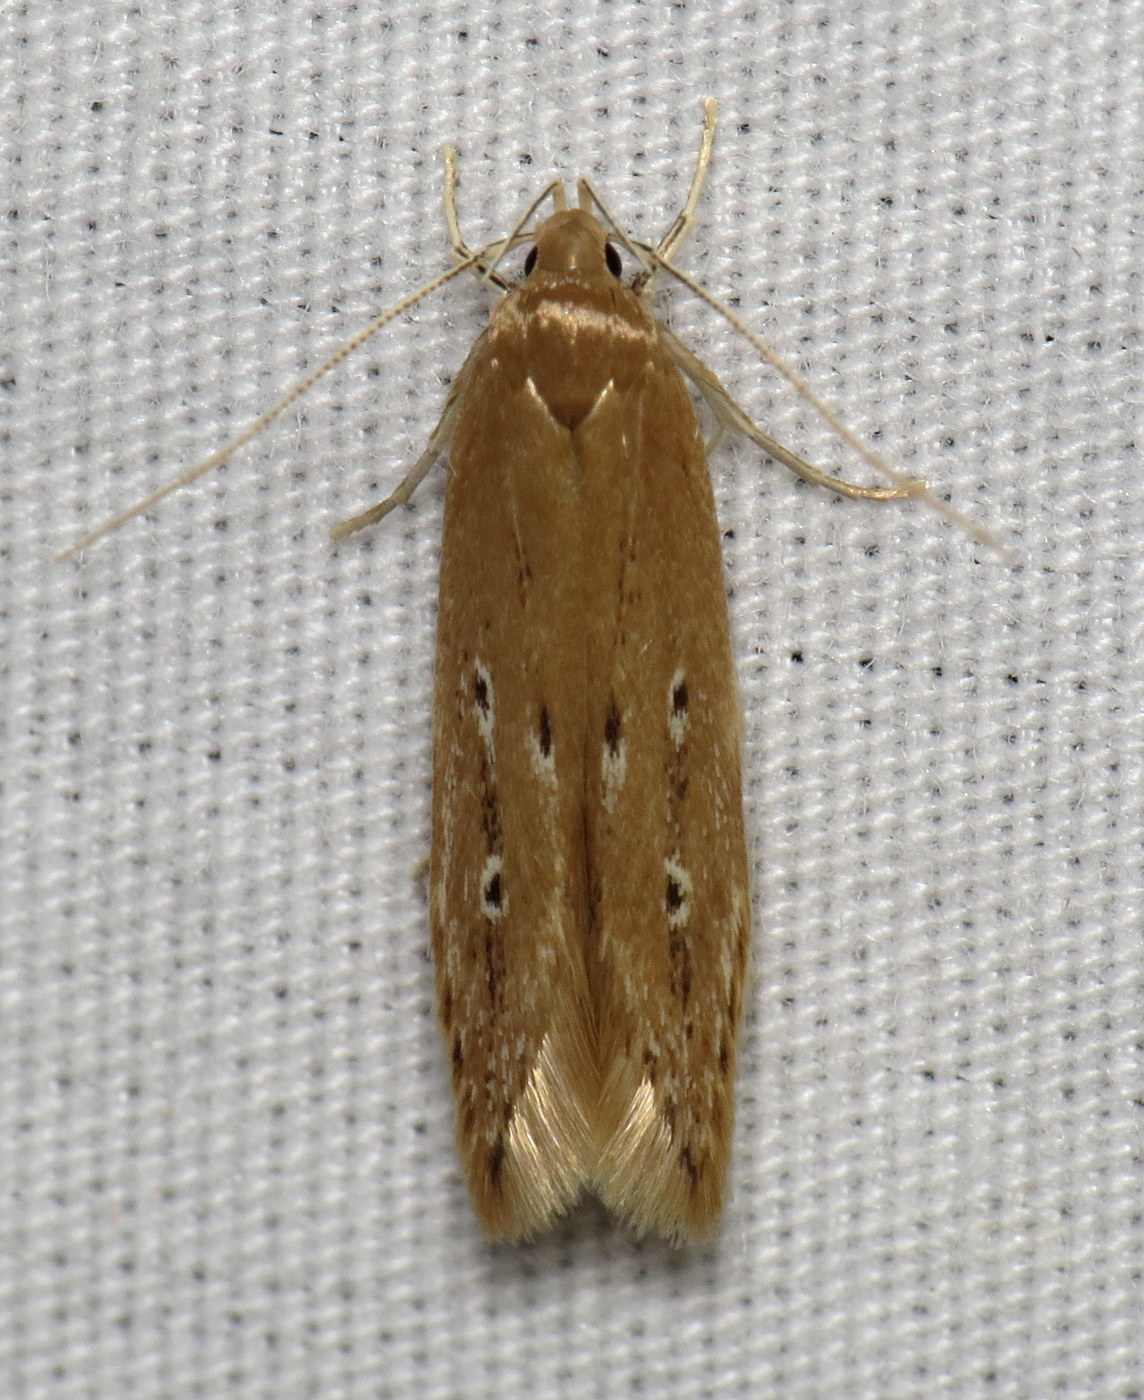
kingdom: Animalia
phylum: Arthropoda
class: Insecta
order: Lepidoptera
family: Cosmopterigidae
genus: Limnaecia
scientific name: Limnaecia phragmitella
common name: Bulrush cosmet
